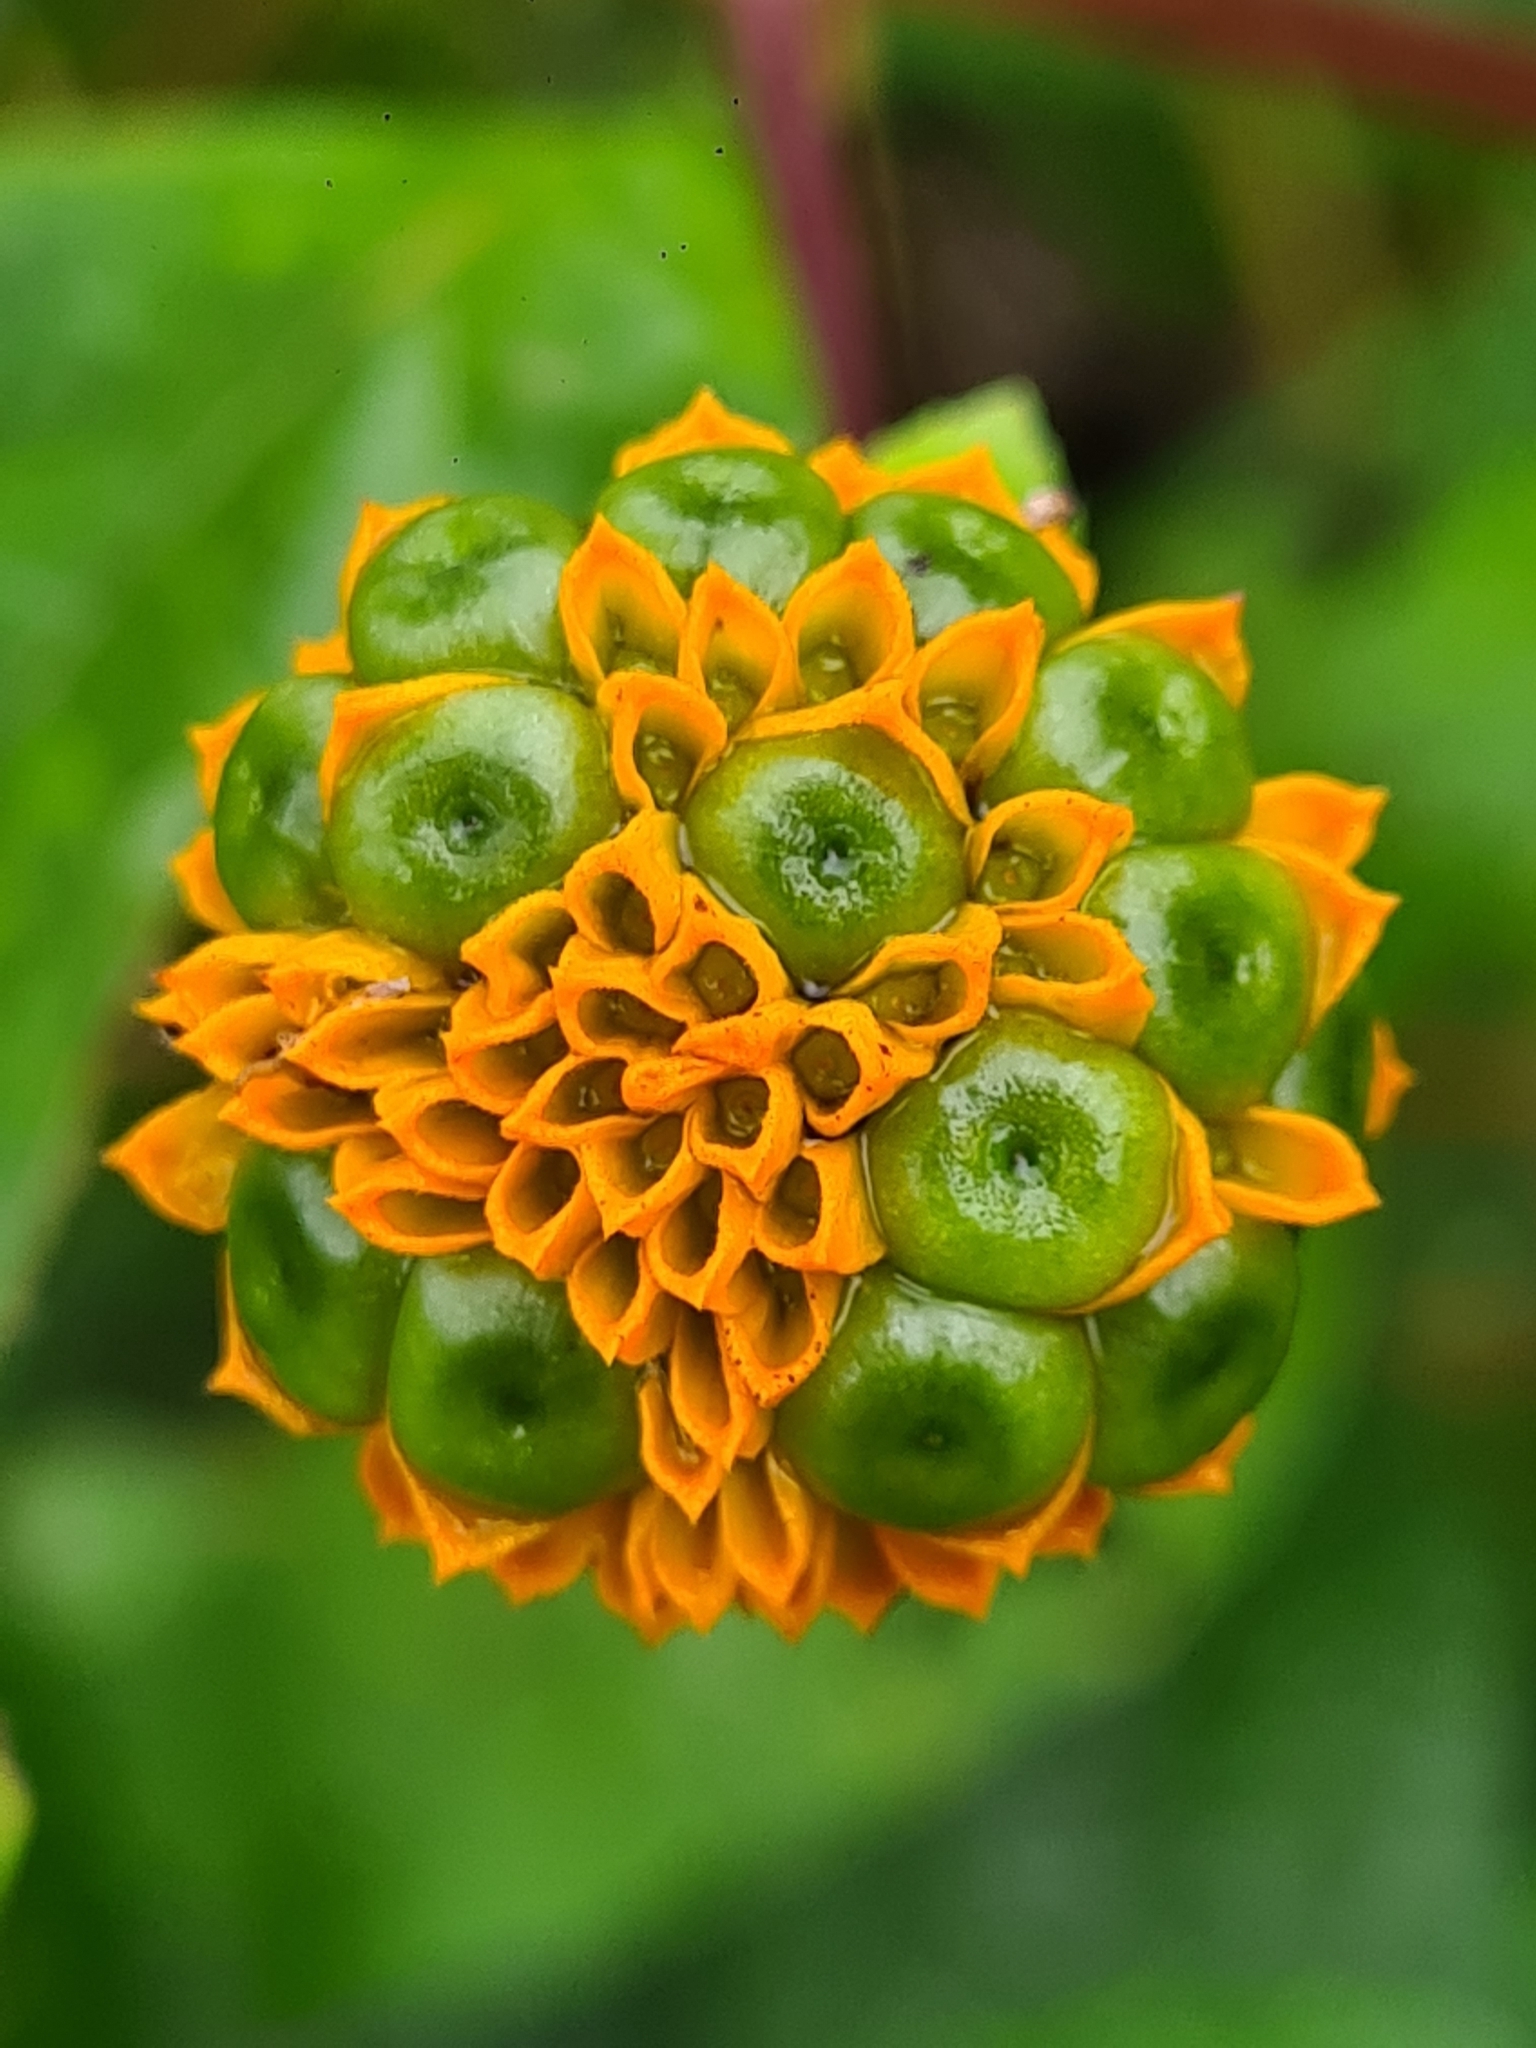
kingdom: Plantae
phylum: Tracheophyta
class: Magnoliopsida
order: Asterales
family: Asteraceae
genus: Tilesia
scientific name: Tilesia baccata
